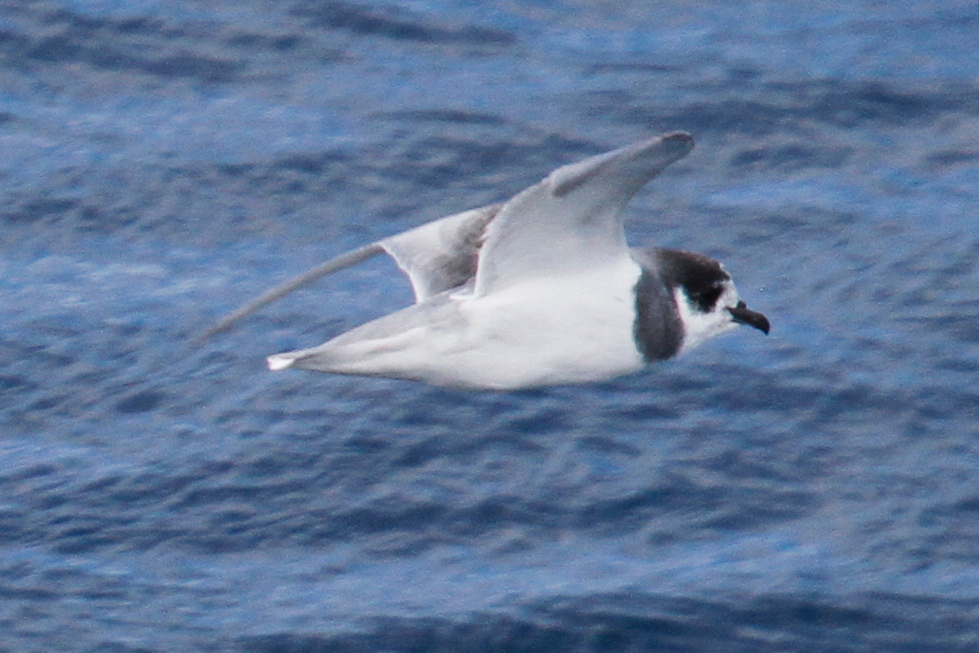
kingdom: Animalia
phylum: Chordata
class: Aves
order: Procellariiformes
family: Procellariidae
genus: Halobaena
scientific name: Halobaena caerulea
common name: Blue petrel
